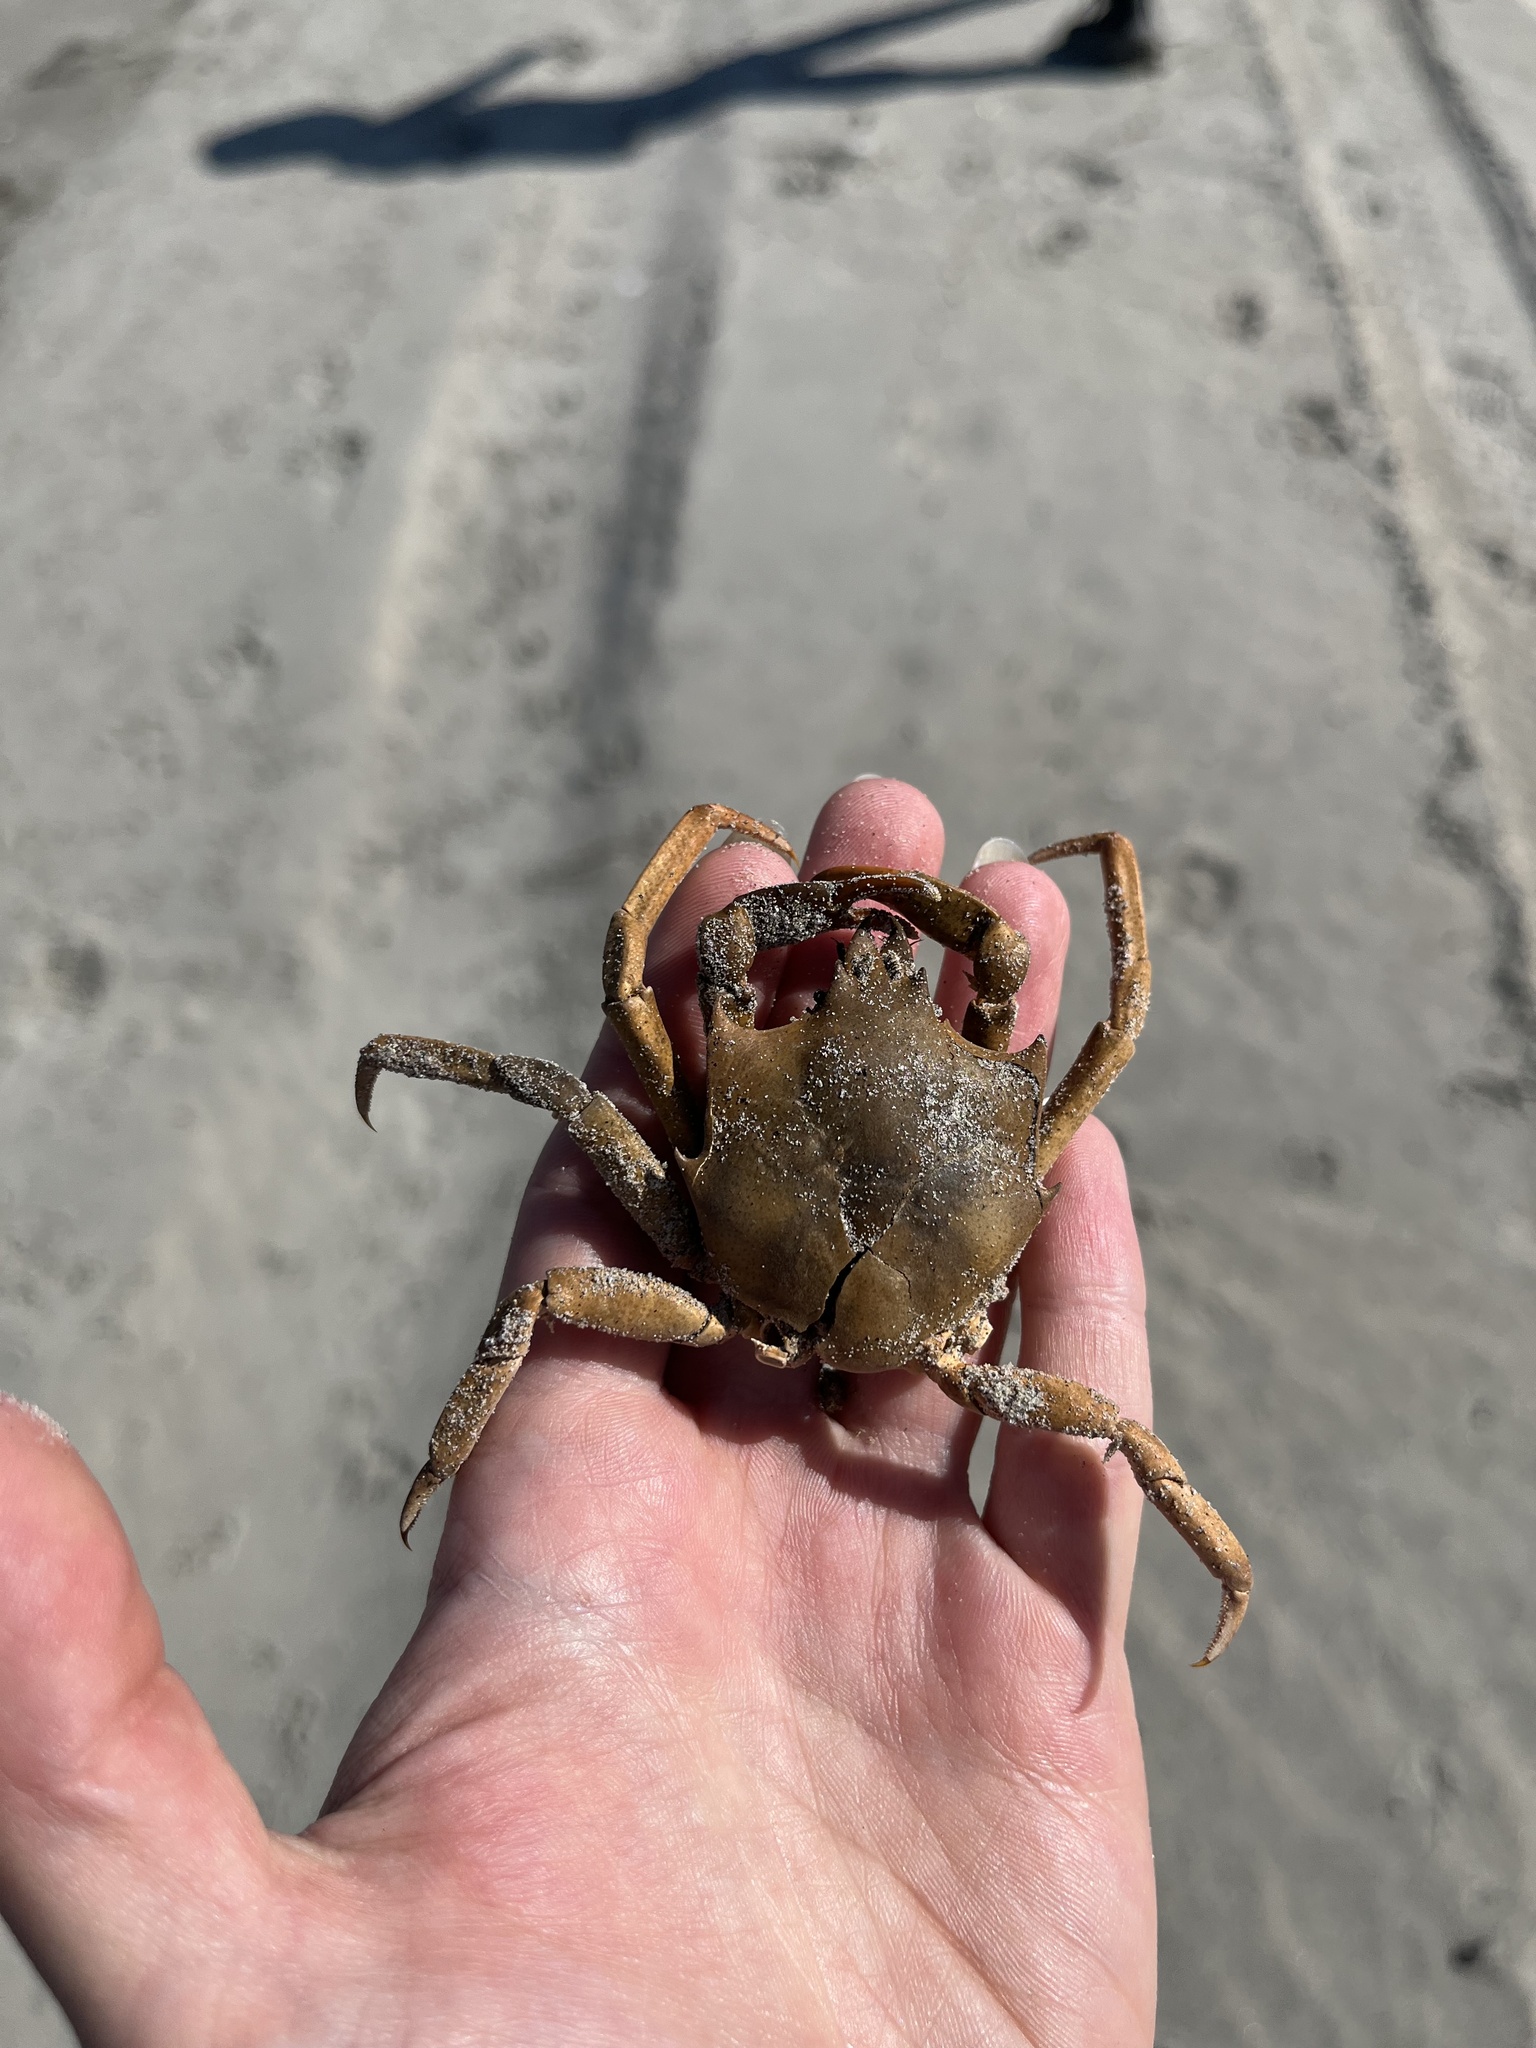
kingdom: Animalia
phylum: Arthropoda
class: Malacostraca
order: Decapoda
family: Epialtidae
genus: Pugettia
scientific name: Pugettia producta
